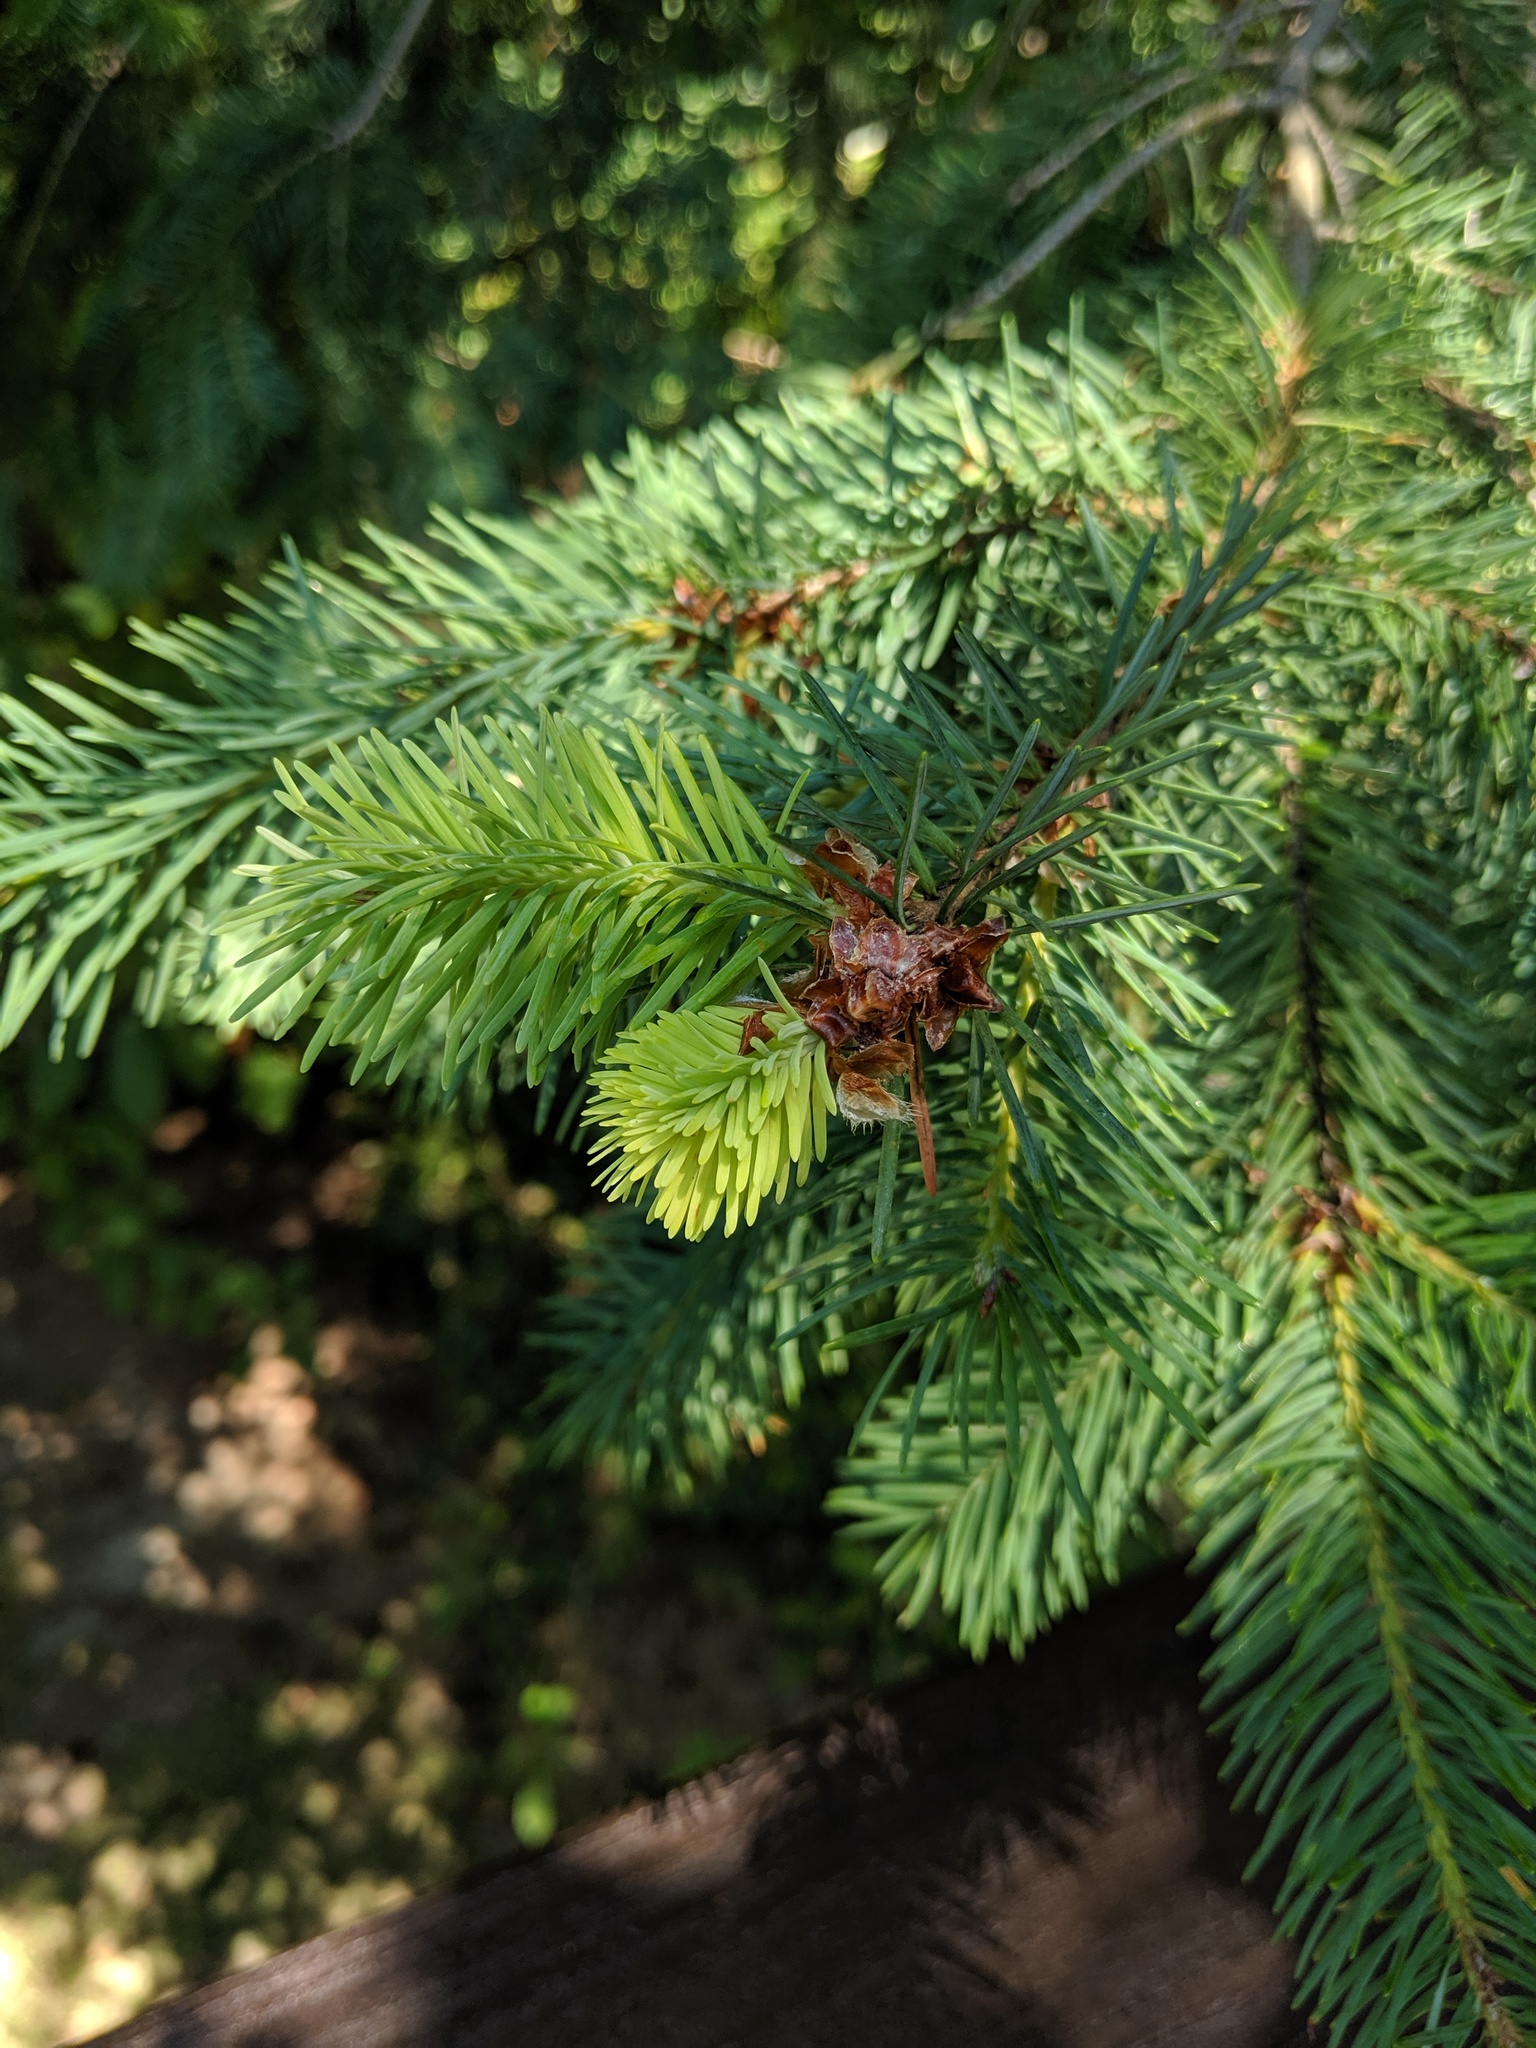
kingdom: Plantae
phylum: Tracheophyta
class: Pinopsida
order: Pinales
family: Pinaceae
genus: Pseudotsuga
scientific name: Pseudotsuga menziesii
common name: Douglas fir
